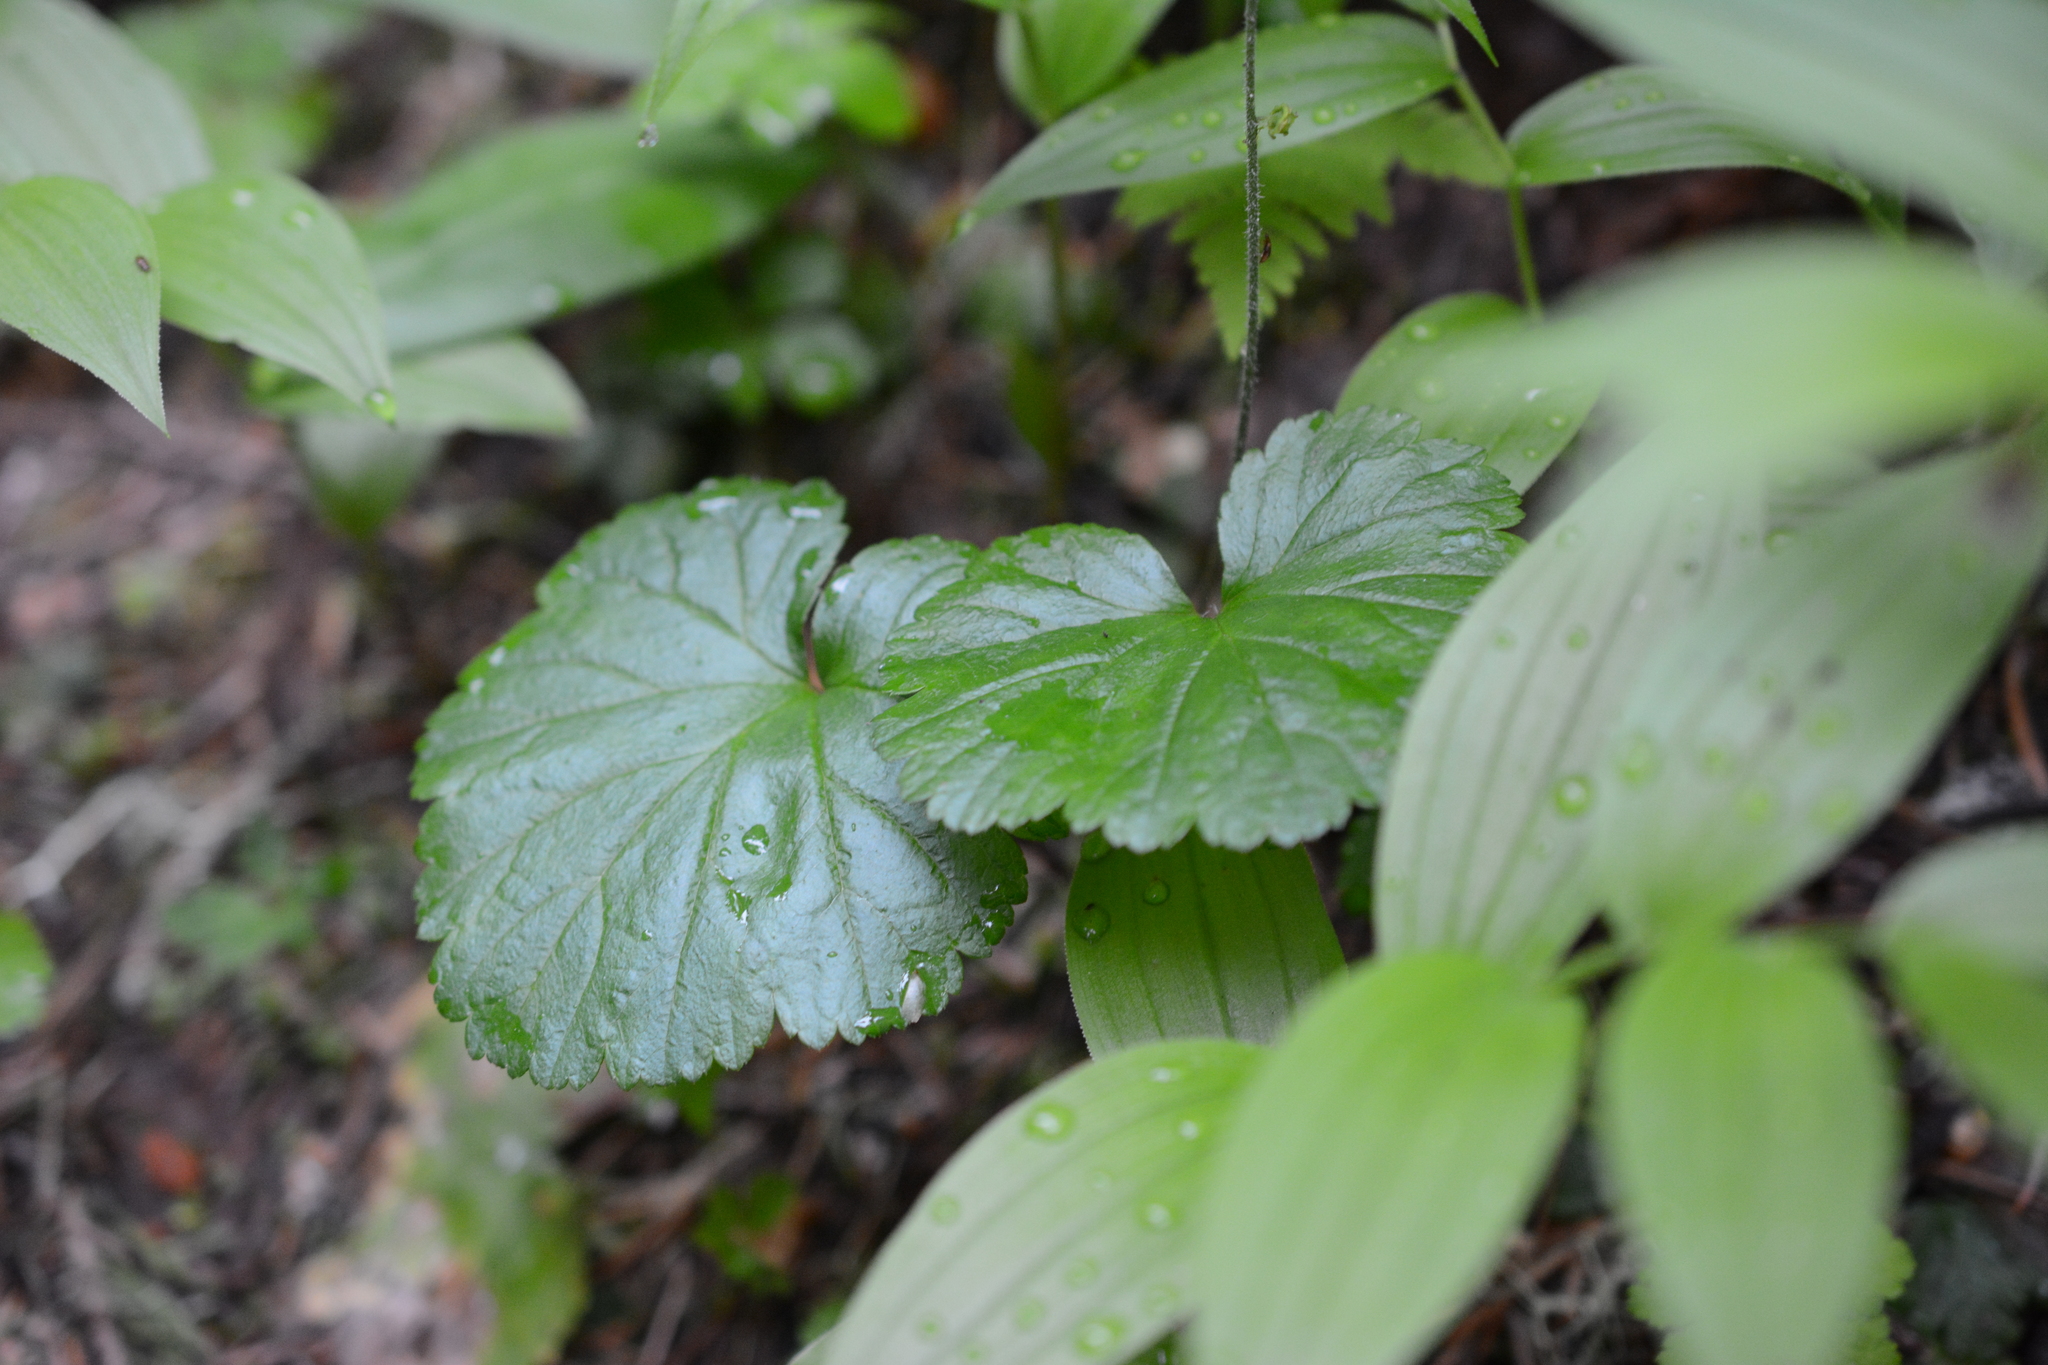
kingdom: Plantae
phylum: Tracheophyta
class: Magnoliopsida
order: Saxifragales
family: Saxifragaceae
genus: Brewerimitella
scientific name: Brewerimitella breweri
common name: Brewer's bishop's-cap
